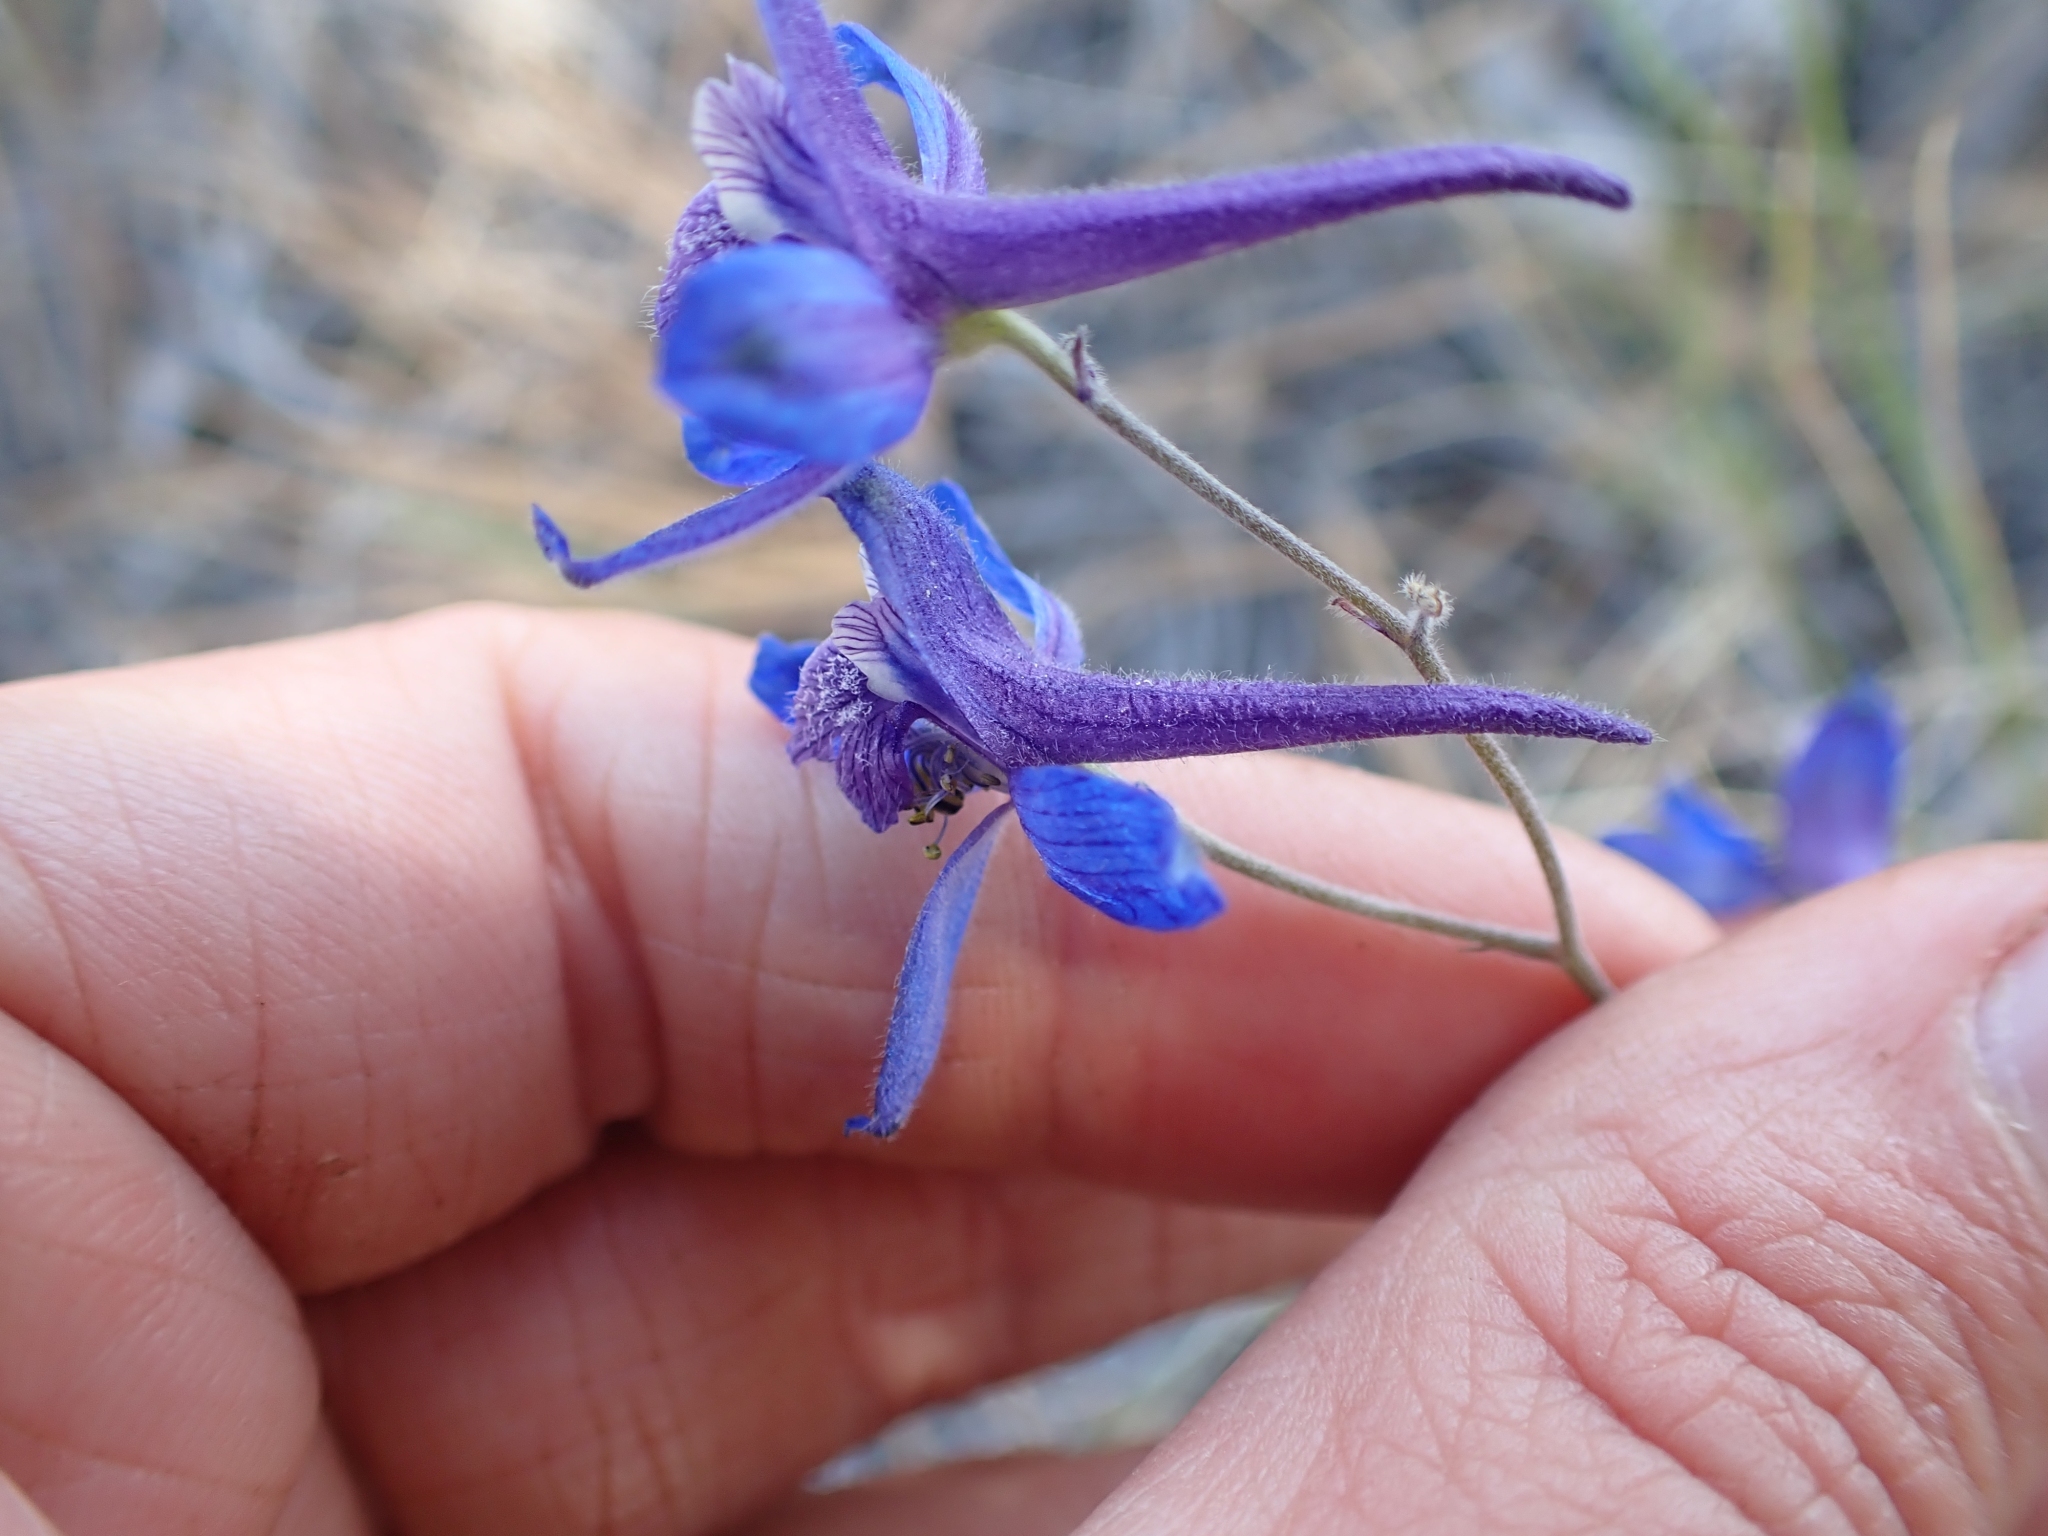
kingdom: Plantae
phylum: Tracheophyta
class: Magnoliopsida
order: Ranunculales
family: Ranunculaceae
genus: Delphinium
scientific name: Delphinium nuttallianum
